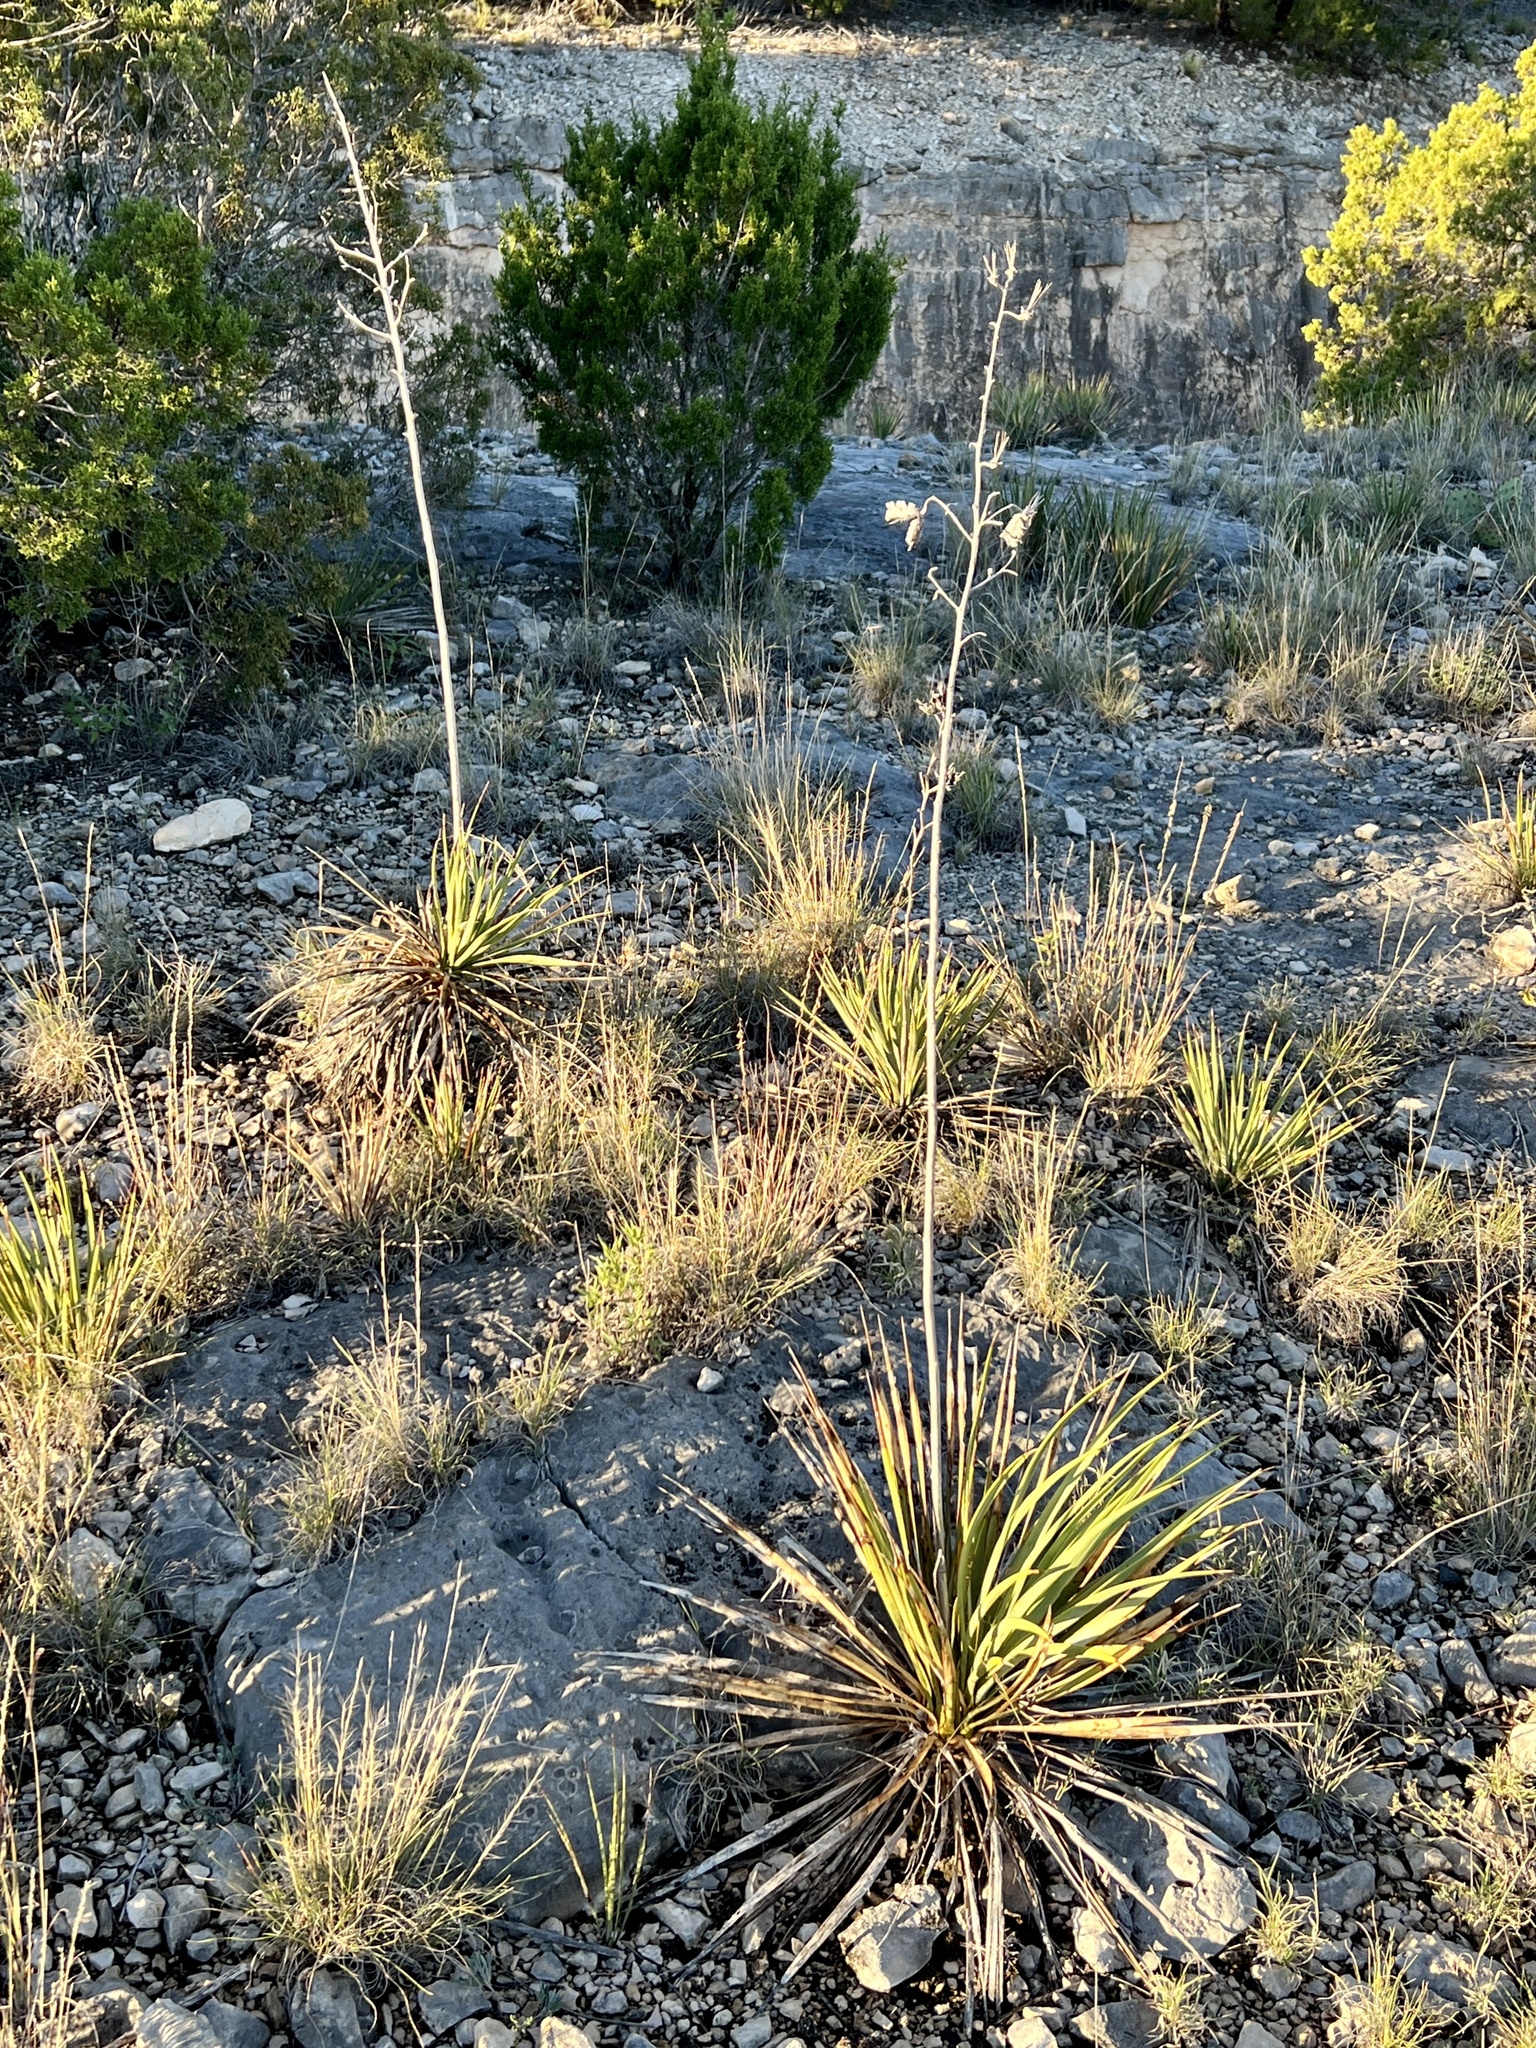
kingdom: Plantae
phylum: Tracheophyta
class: Liliopsida
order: Asparagales
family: Asparagaceae
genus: Yucca
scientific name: Yucca reverchonii
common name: San angelo yucca
